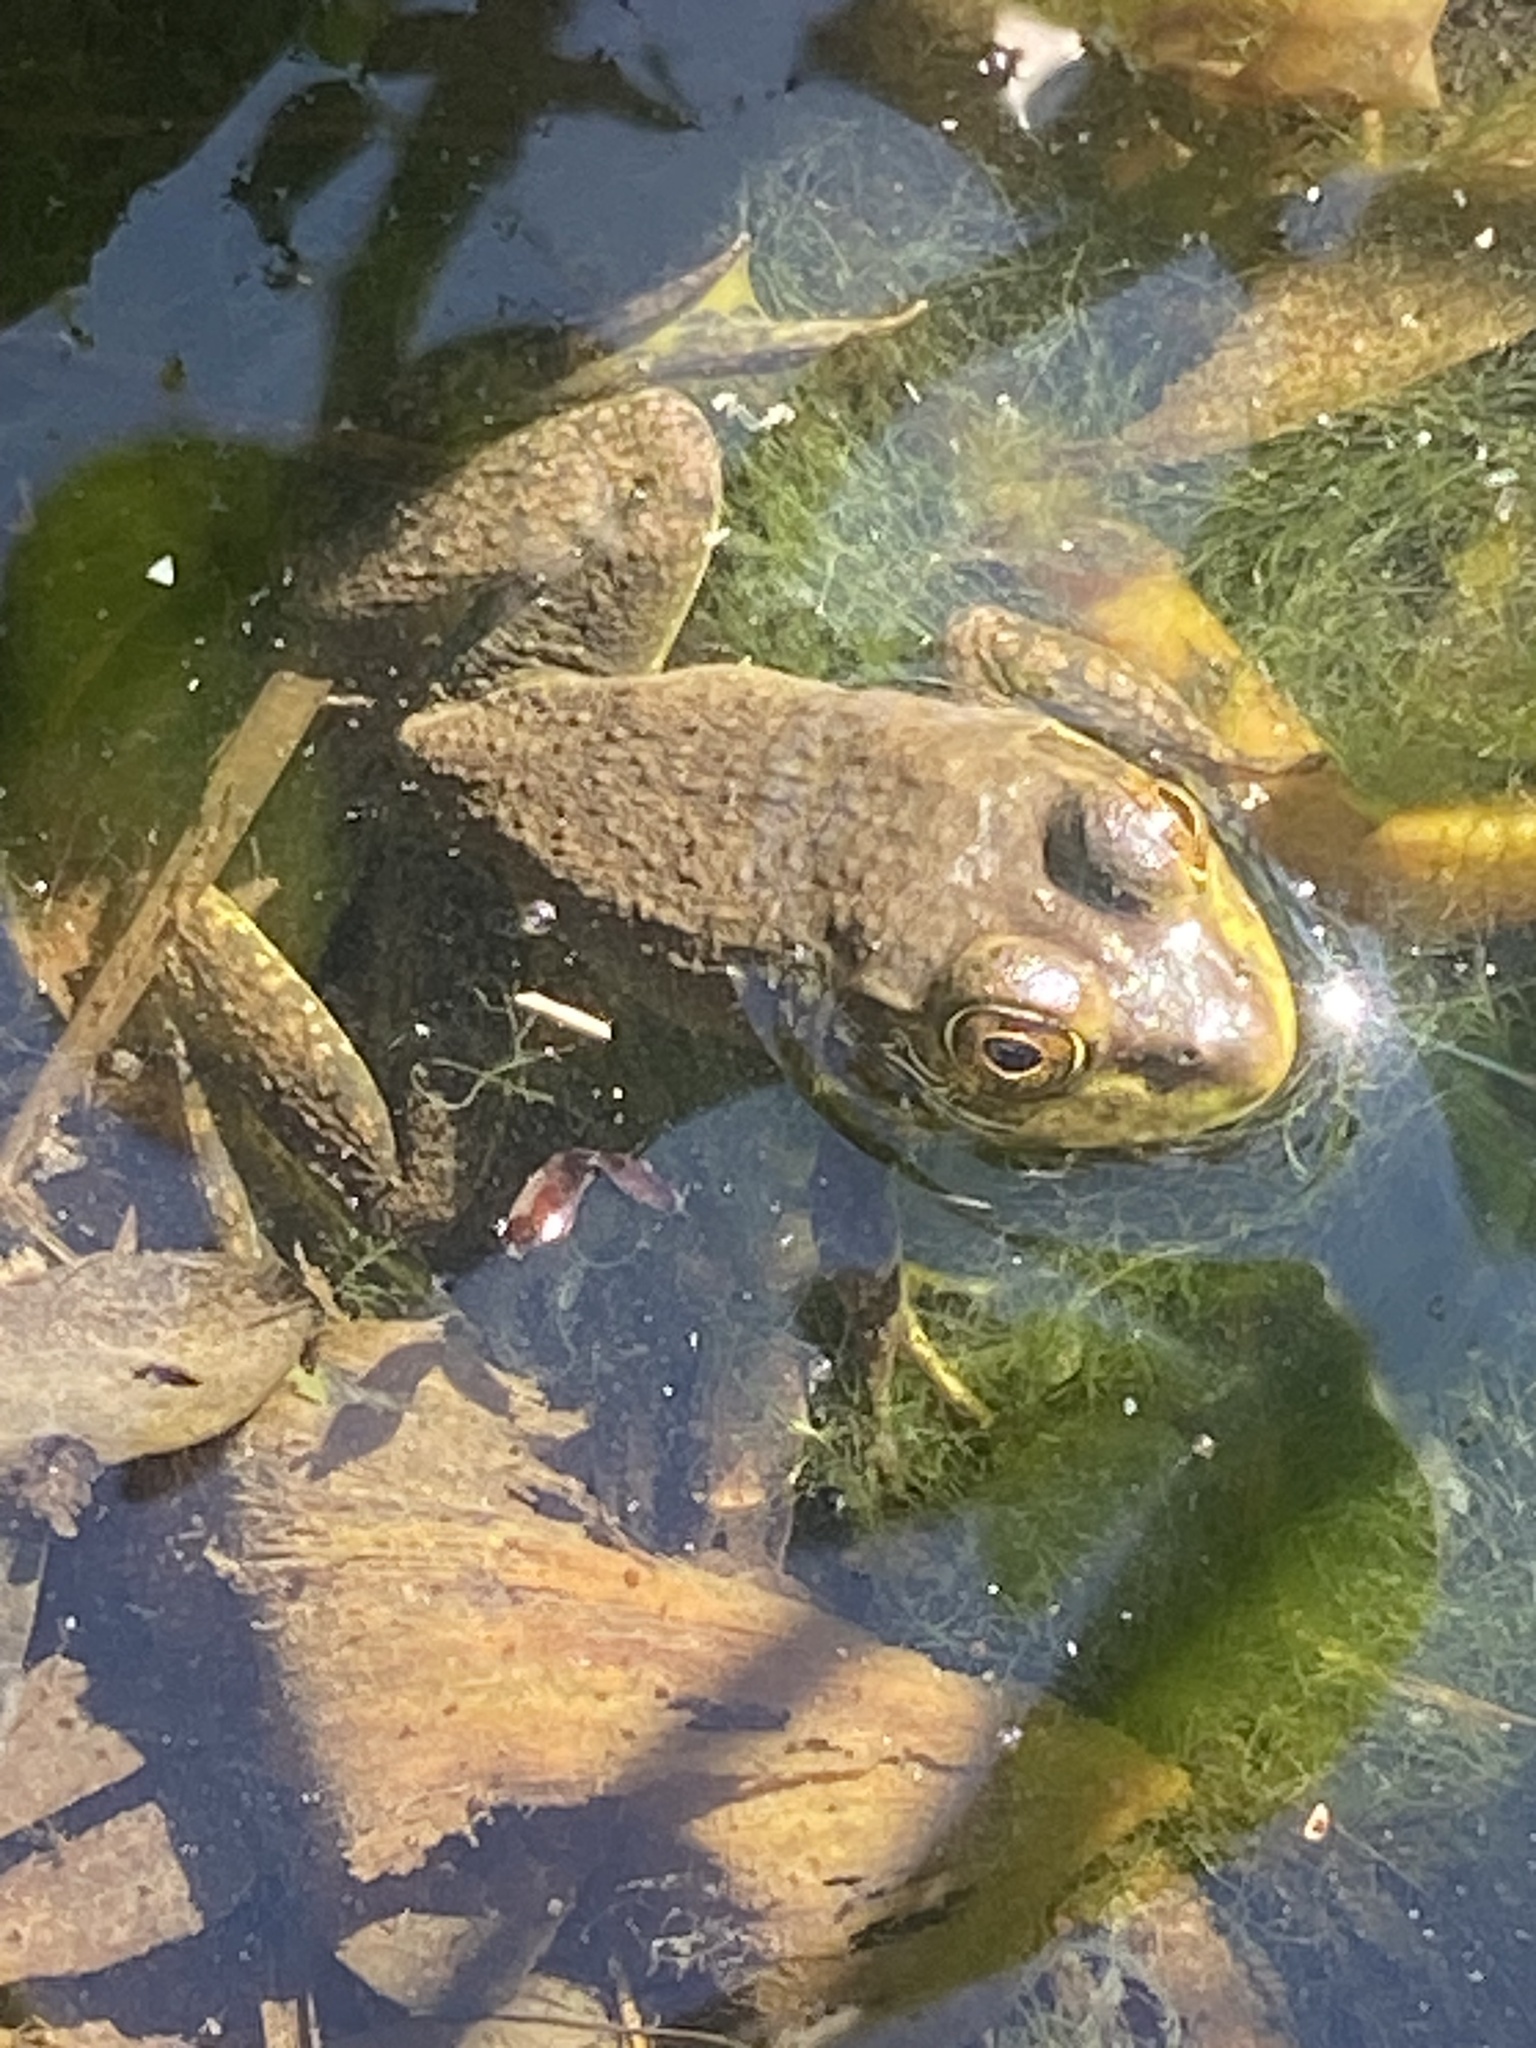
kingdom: Animalia
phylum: Chordata
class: Amphibia
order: Anura
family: Ranidae
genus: Lithobates
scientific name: Lithobates catesbeianus
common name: American bullfrog
